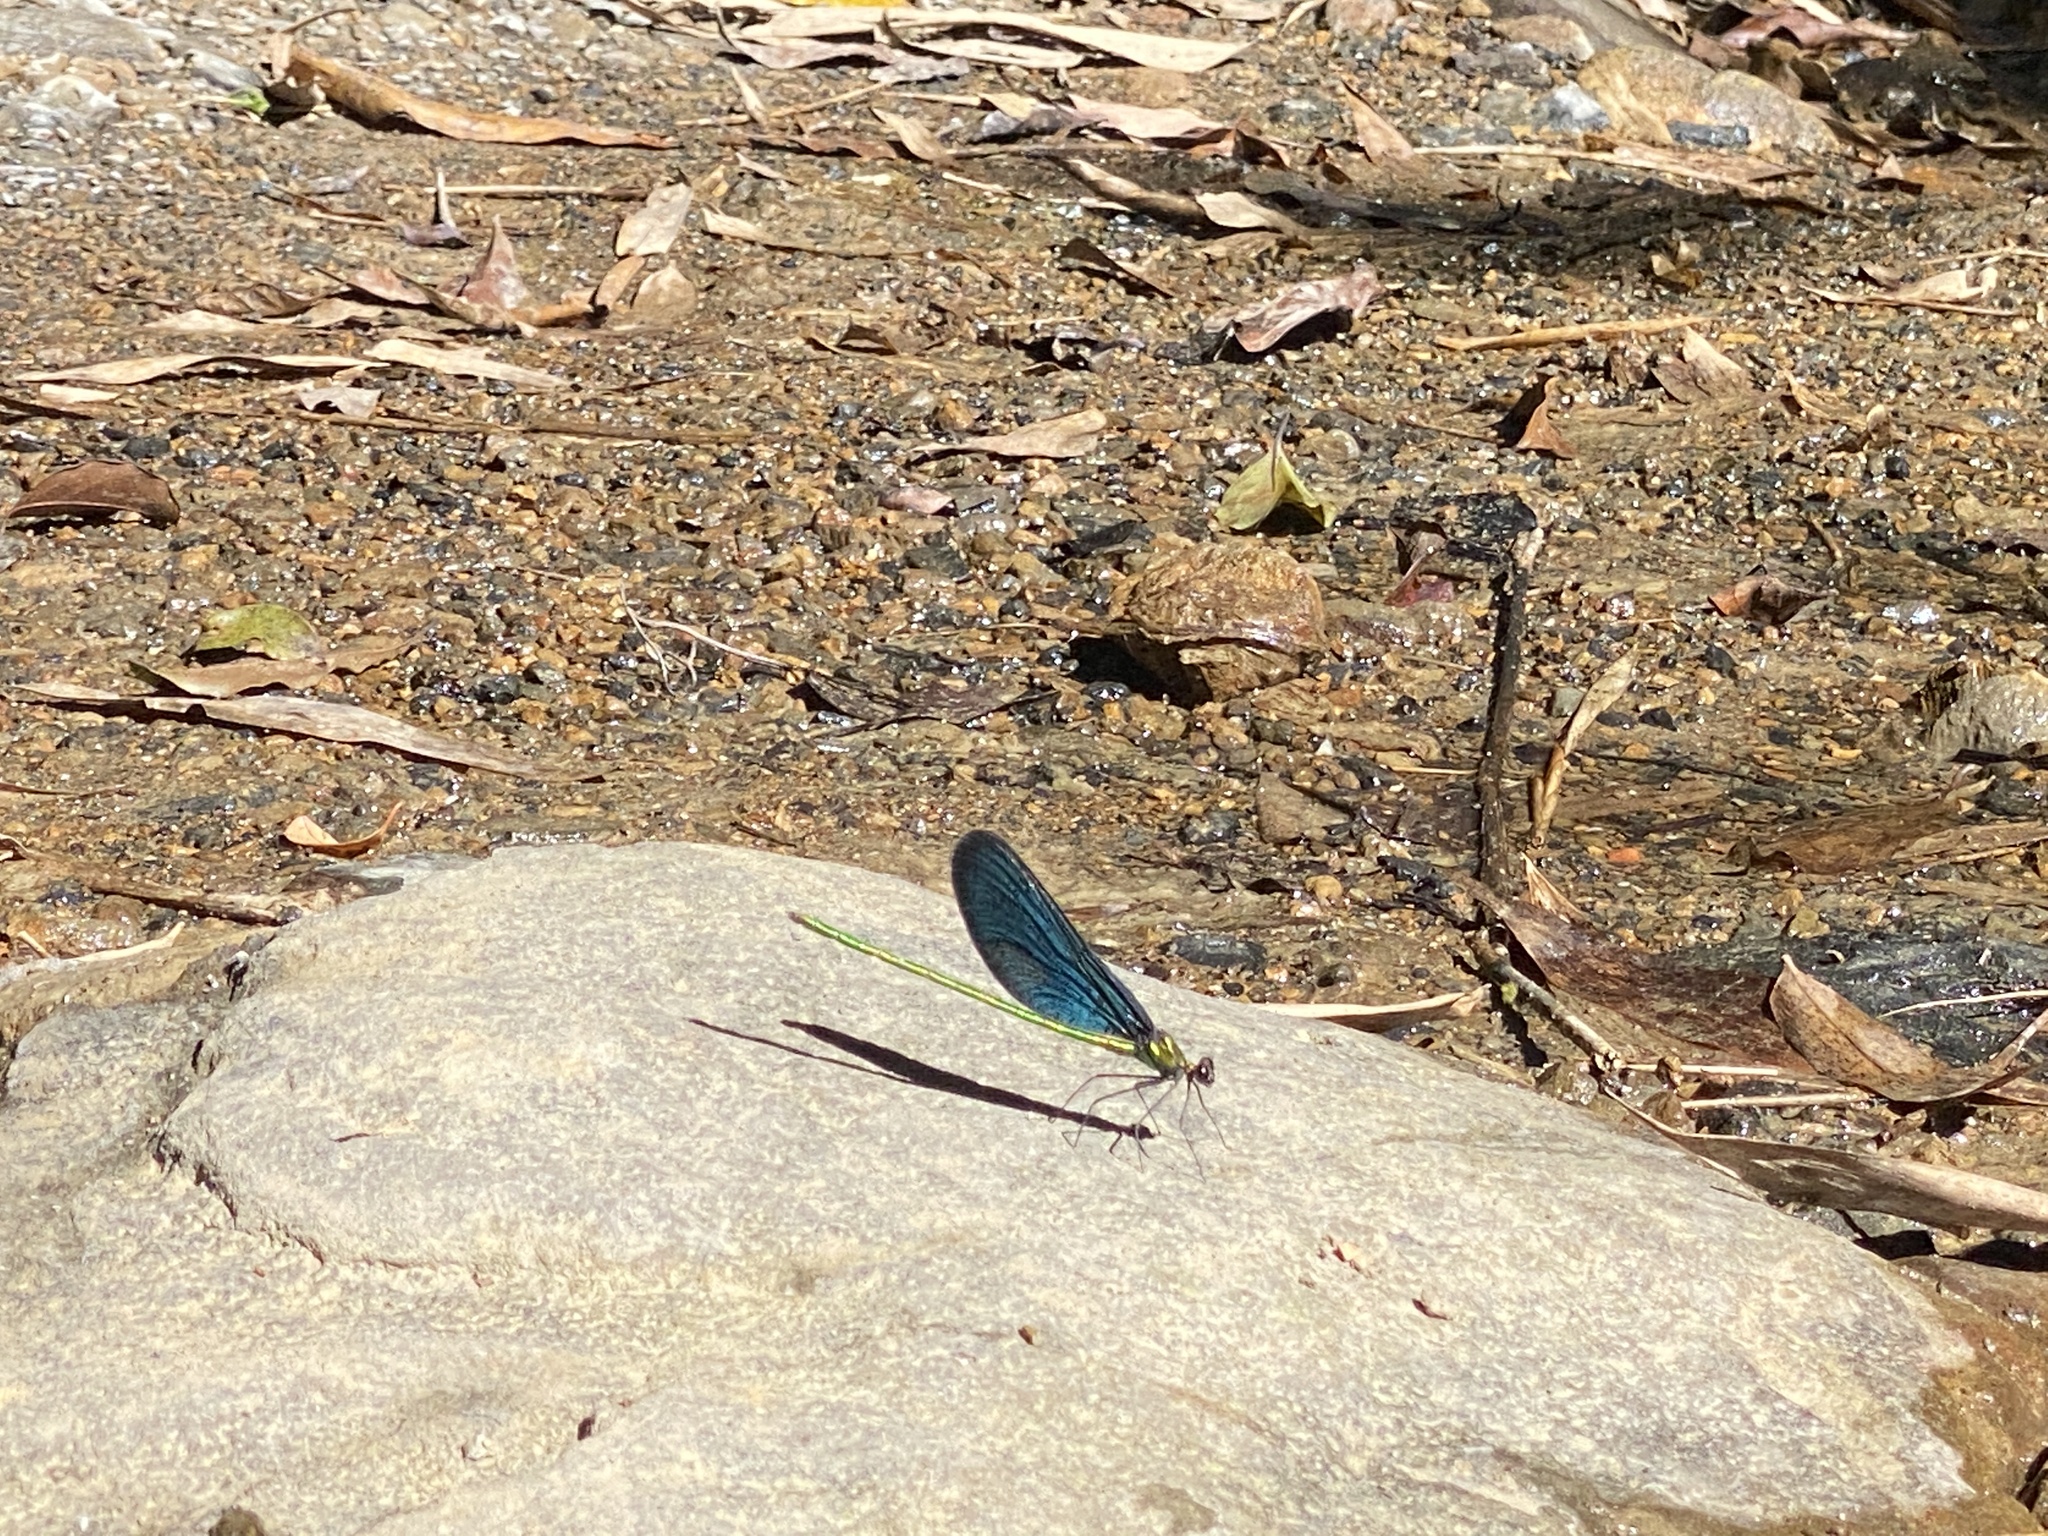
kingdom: Animalia
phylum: Arthropoda
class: Insecta
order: Odonata
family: Calopterygidae
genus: Matrona
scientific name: Matrona cyanoptera
